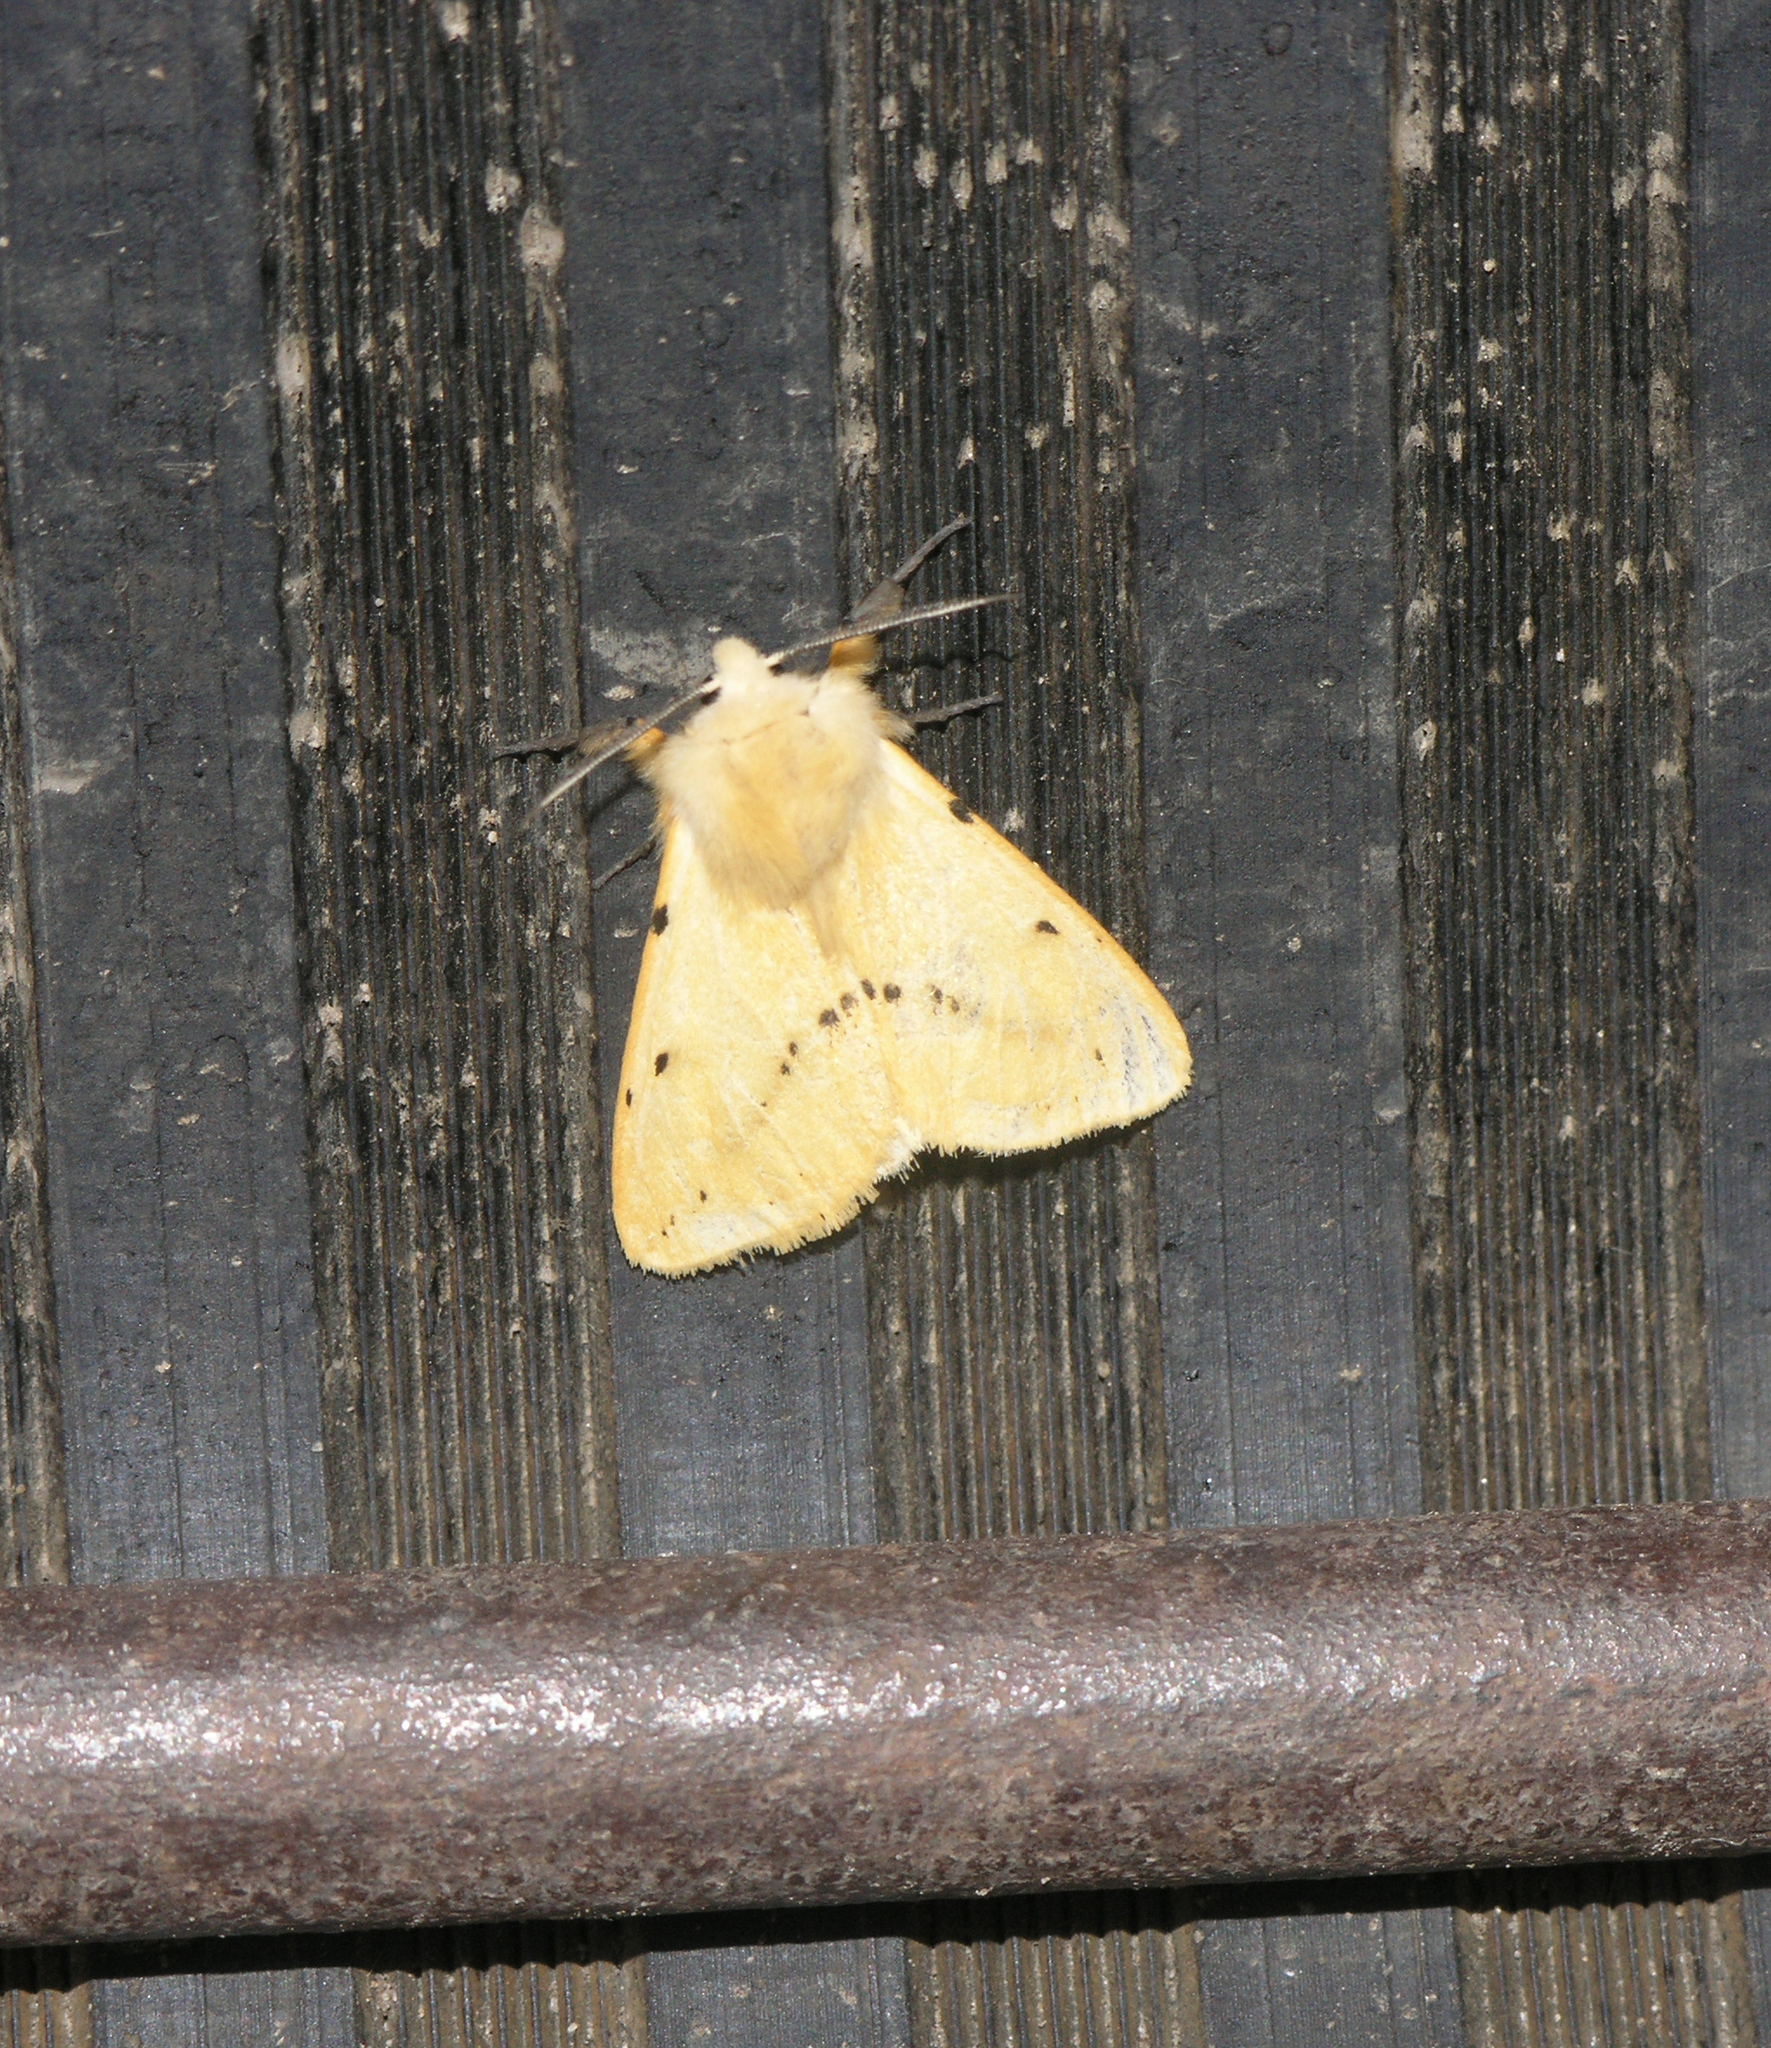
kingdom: Animalia
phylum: Arthropoda
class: Insecta
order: Lepidoptera
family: Erebidae
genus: Spilarctia
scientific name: Spilarctia lutea
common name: Buff ermine
